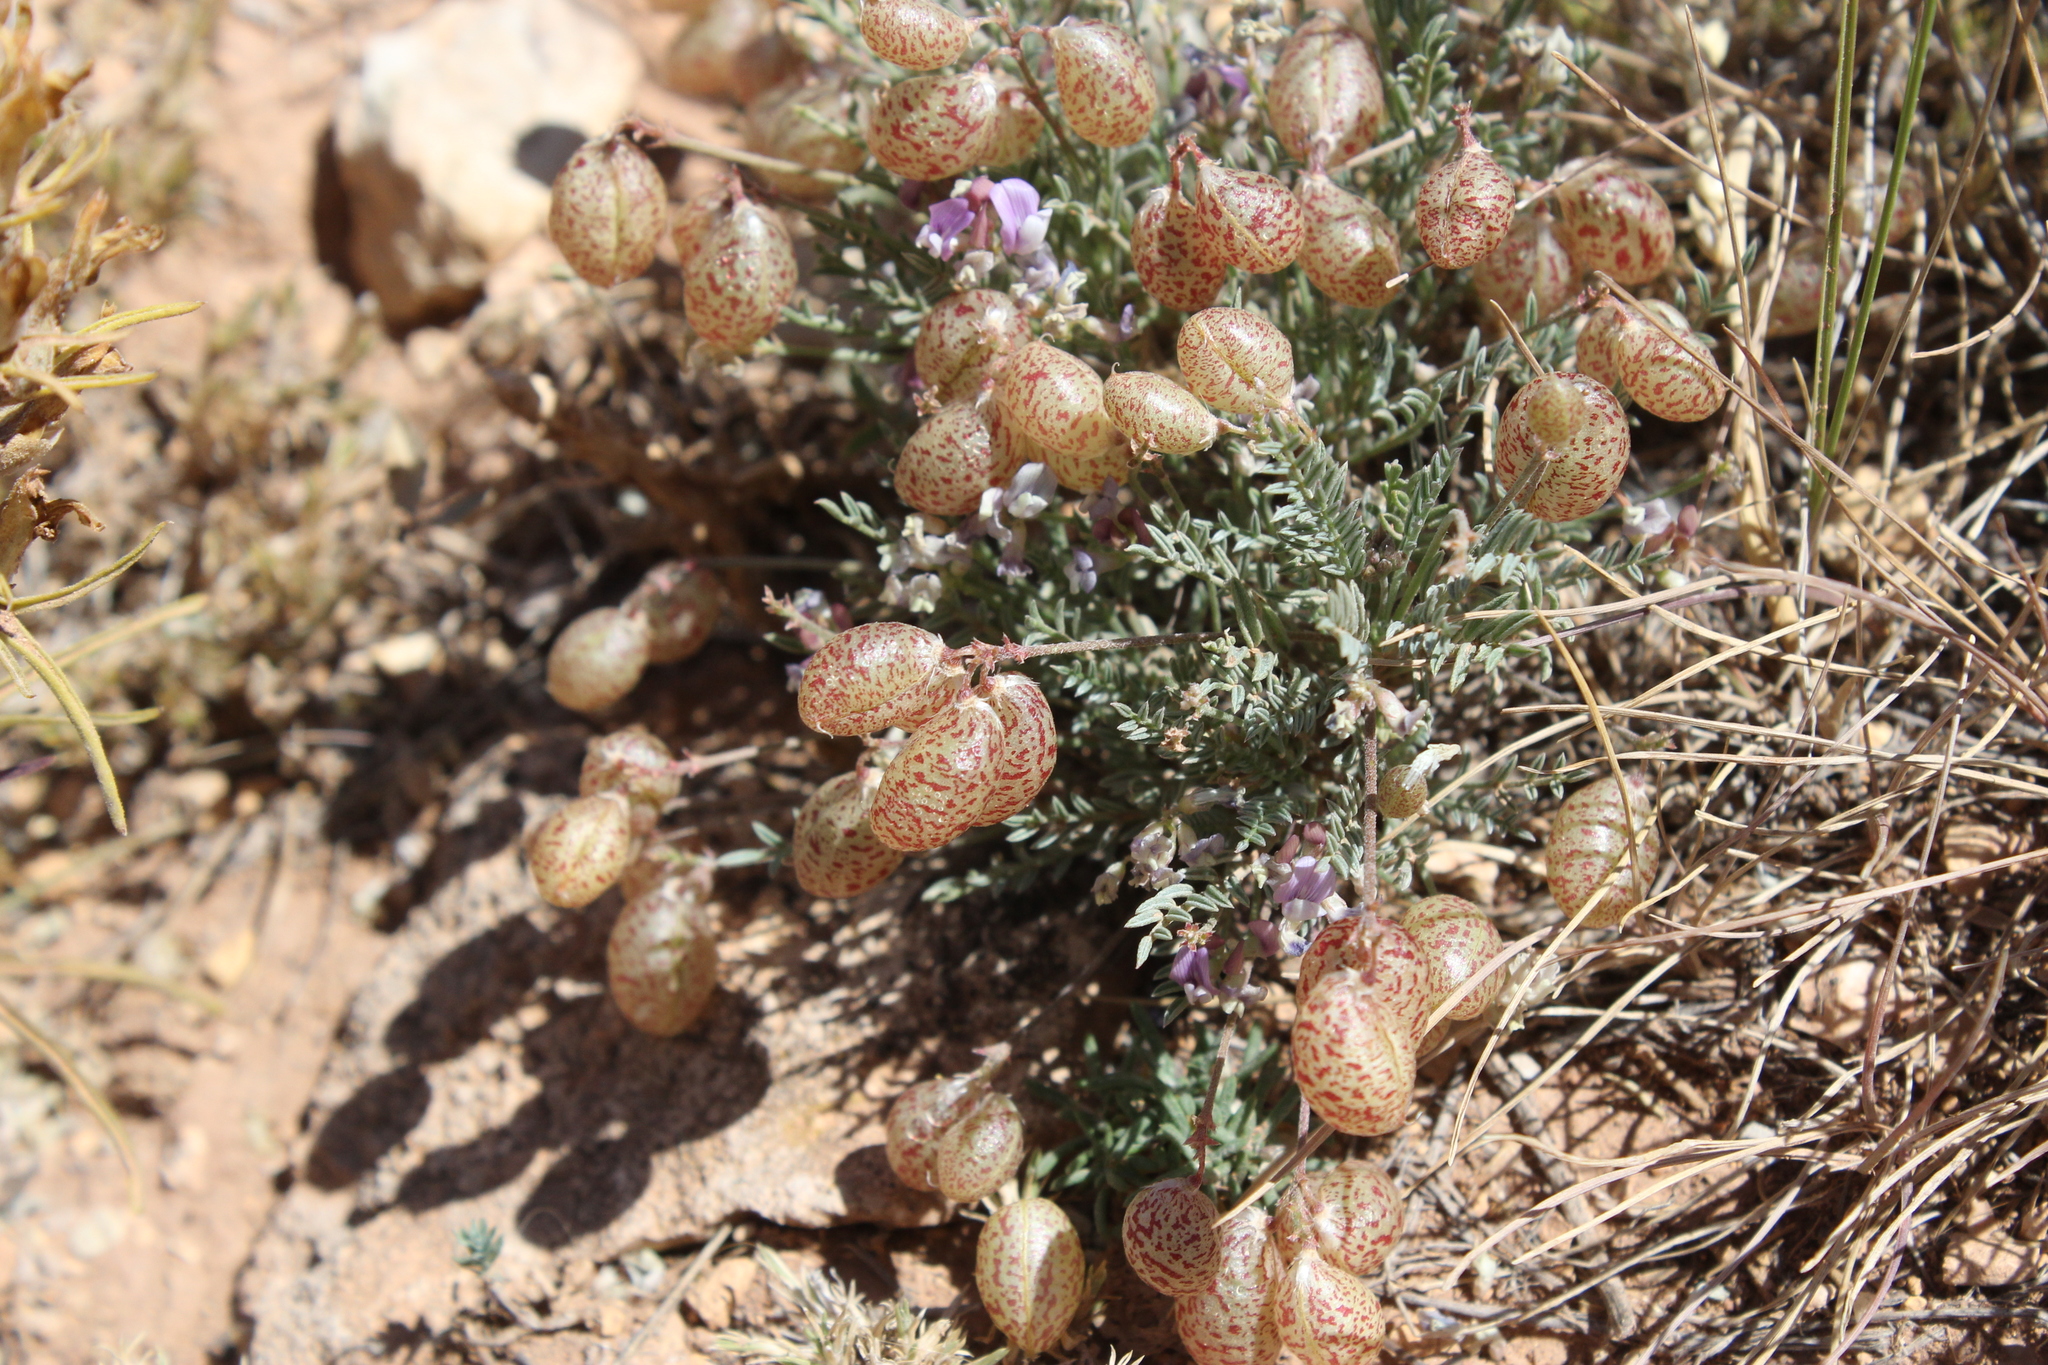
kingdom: Plantae
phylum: Tracheophyta
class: Magnoliopsida
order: Fabales
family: Fabaceae
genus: Astragalus
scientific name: Astragalus jejunus
